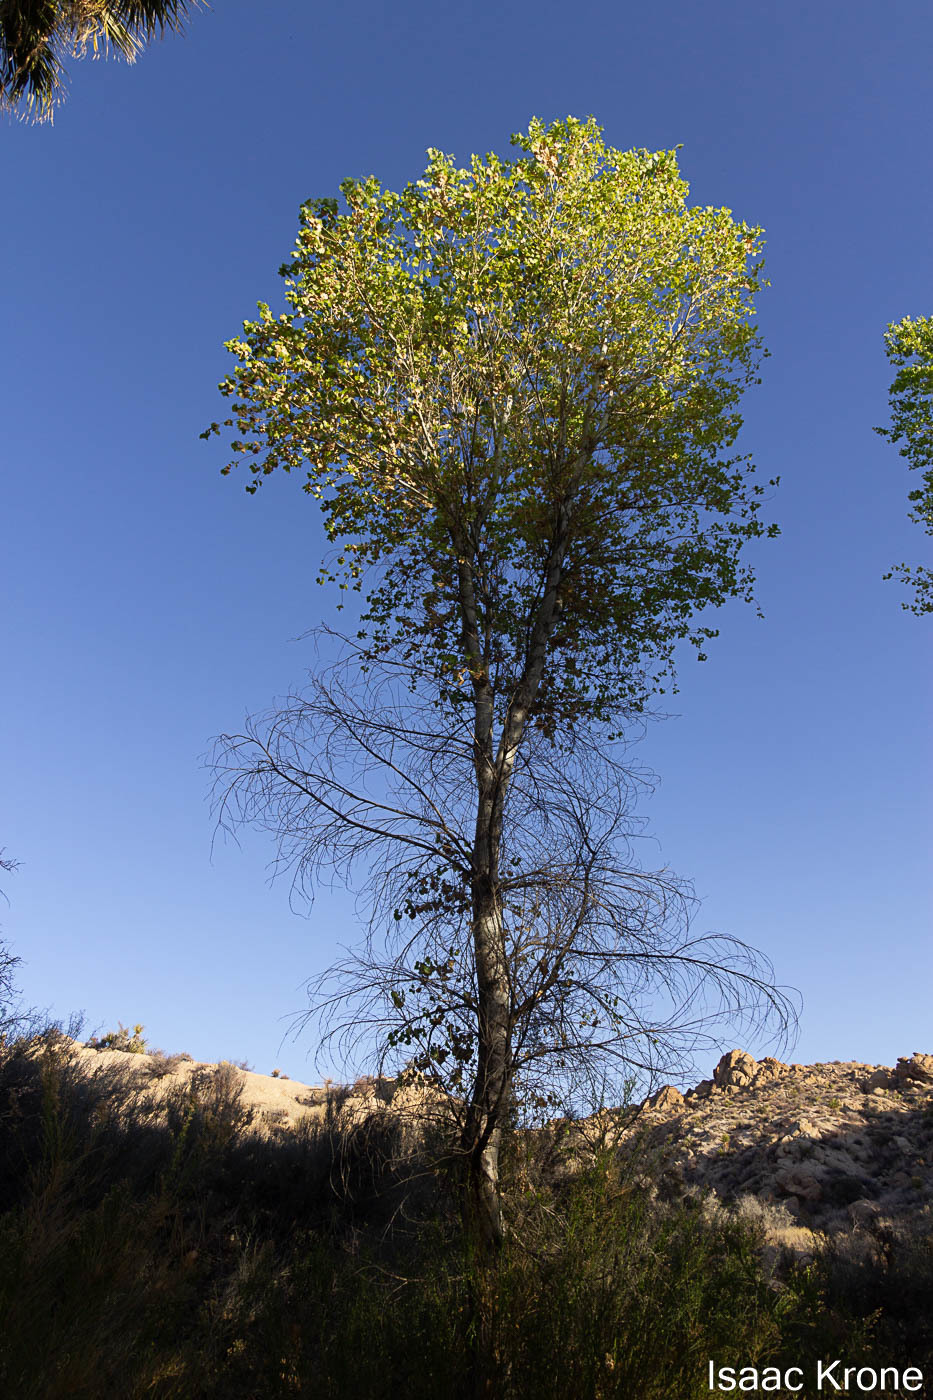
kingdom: Plantae
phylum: Tracheophyta
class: Magnoliopsida
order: Malpighiales
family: Salicaceae
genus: Populus
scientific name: Populus fremontii
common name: Fremont's cottonwood
